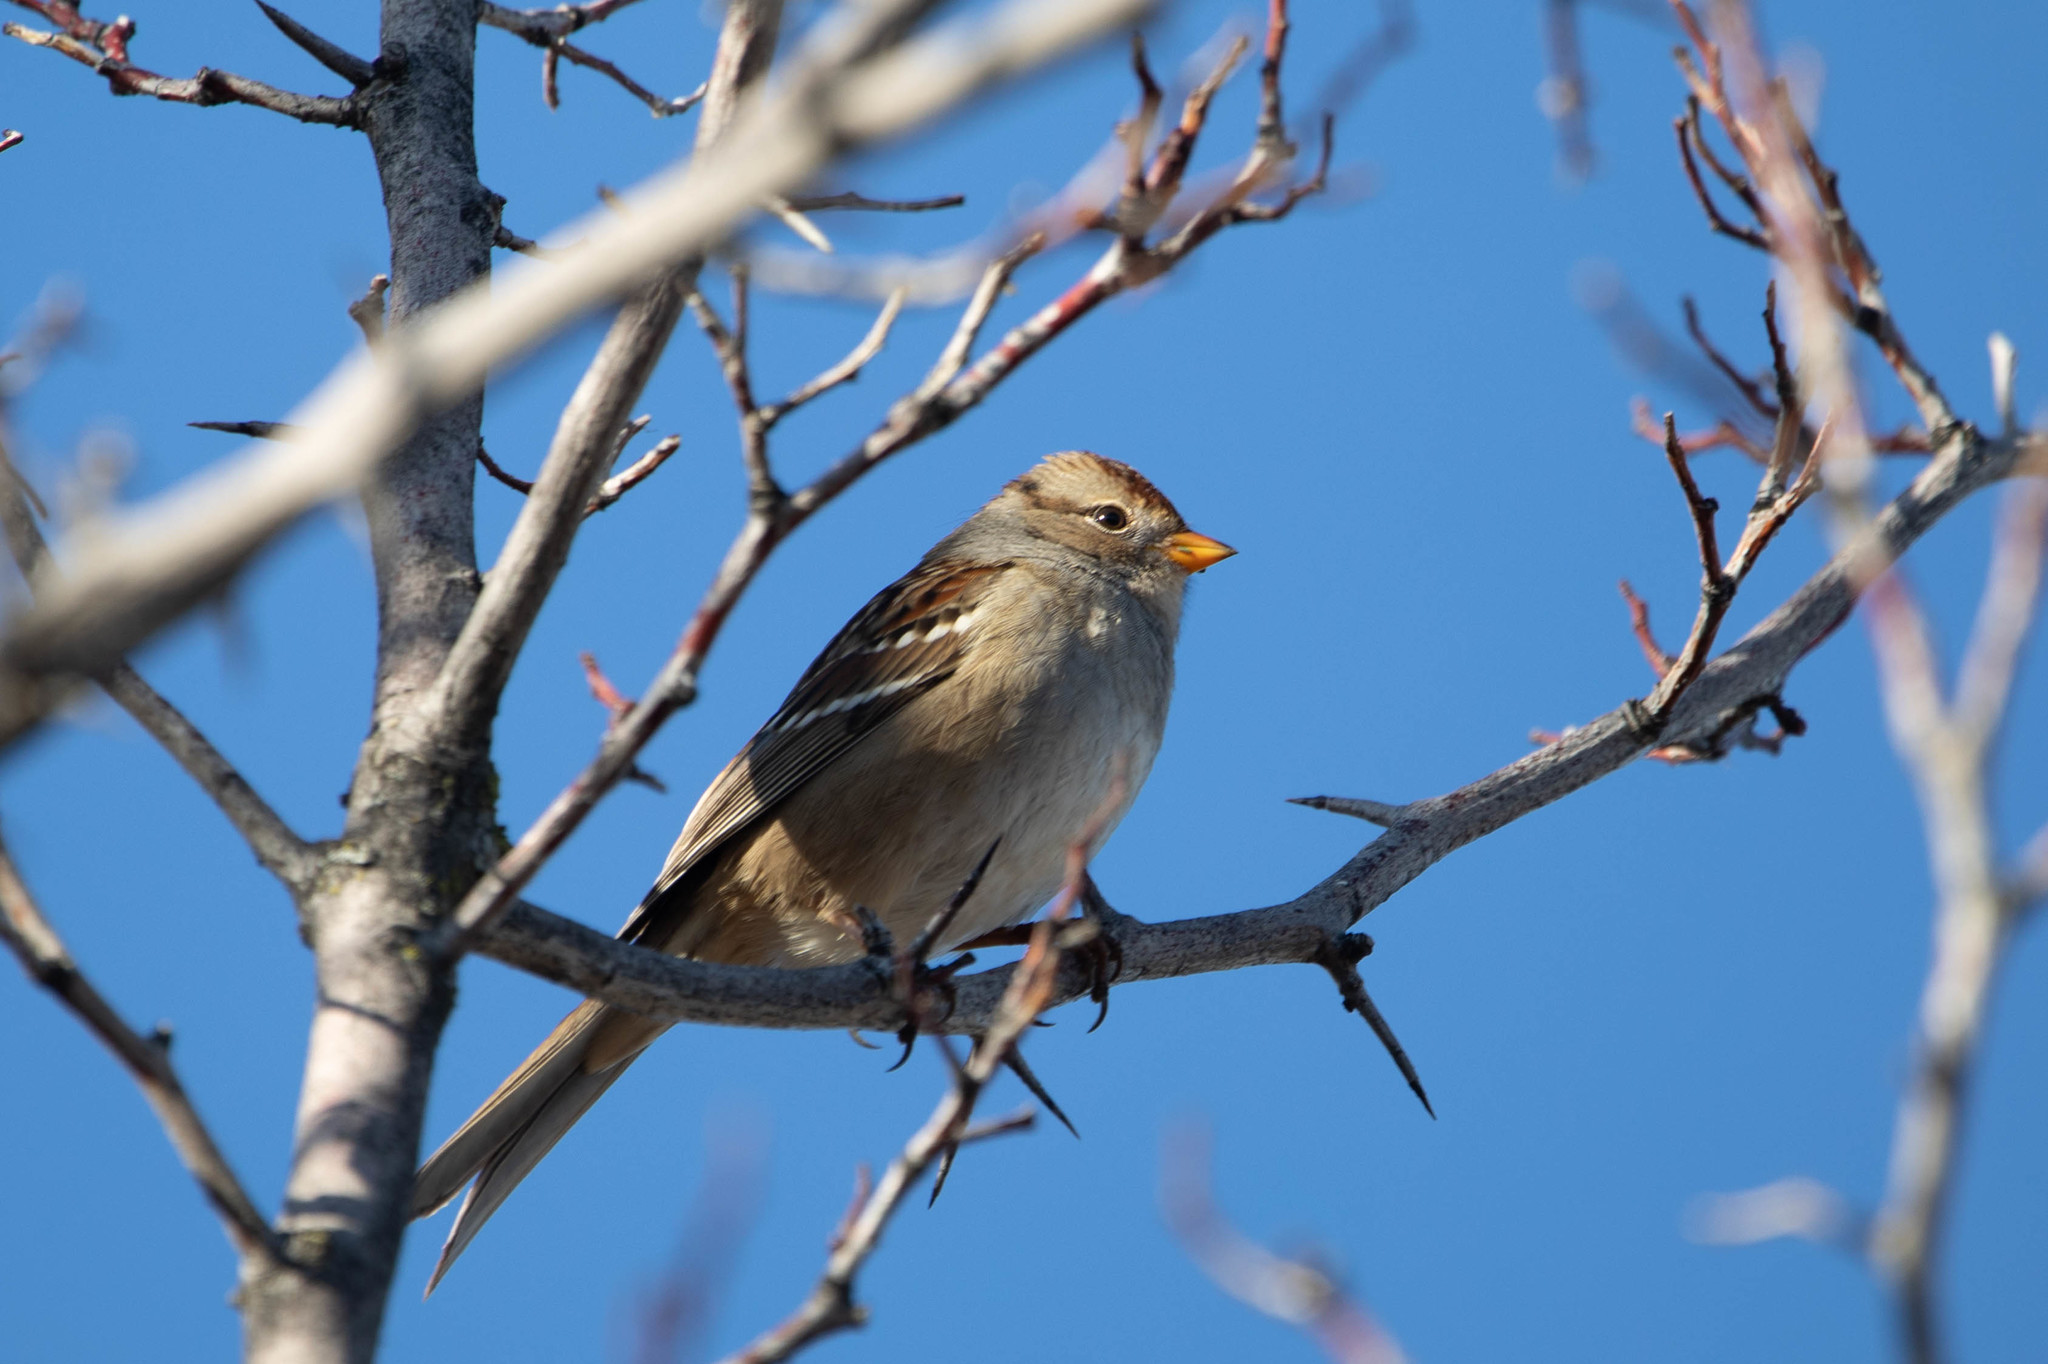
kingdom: Animalia
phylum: Chordata
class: Aves
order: Passeriformes
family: Passerellidae
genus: Zonotrichia
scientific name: Zonotrichia leucophrys
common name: White-crowned sparrow
